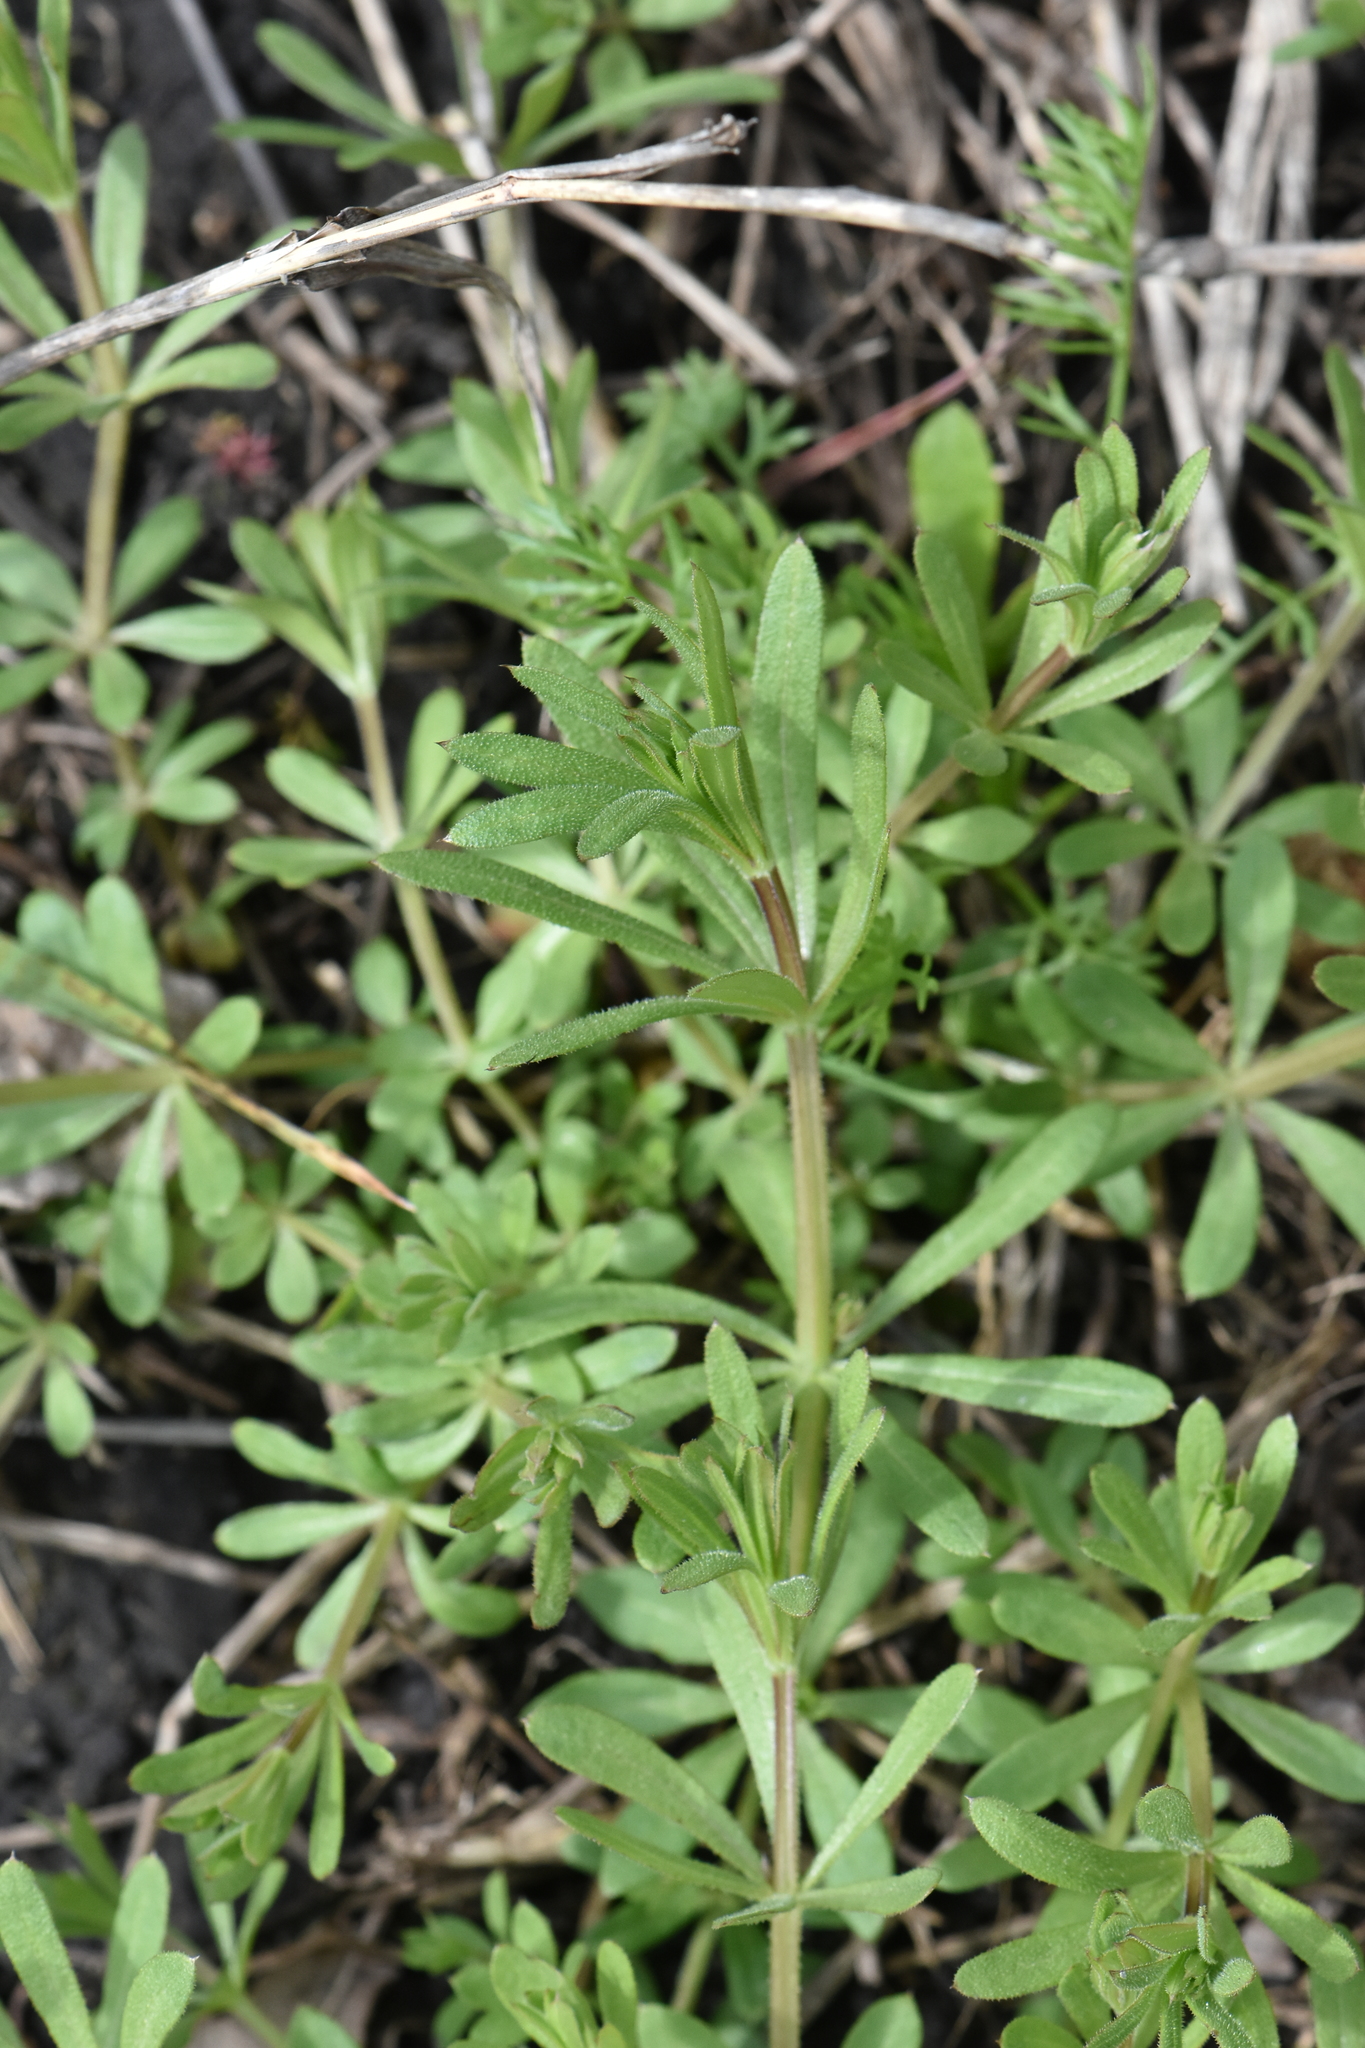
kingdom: Plantae
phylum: Tracheophyta
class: Magnoliopsida
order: Gentianales
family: Rubiaceae
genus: Galium
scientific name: Galium aparine
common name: Cleavers
